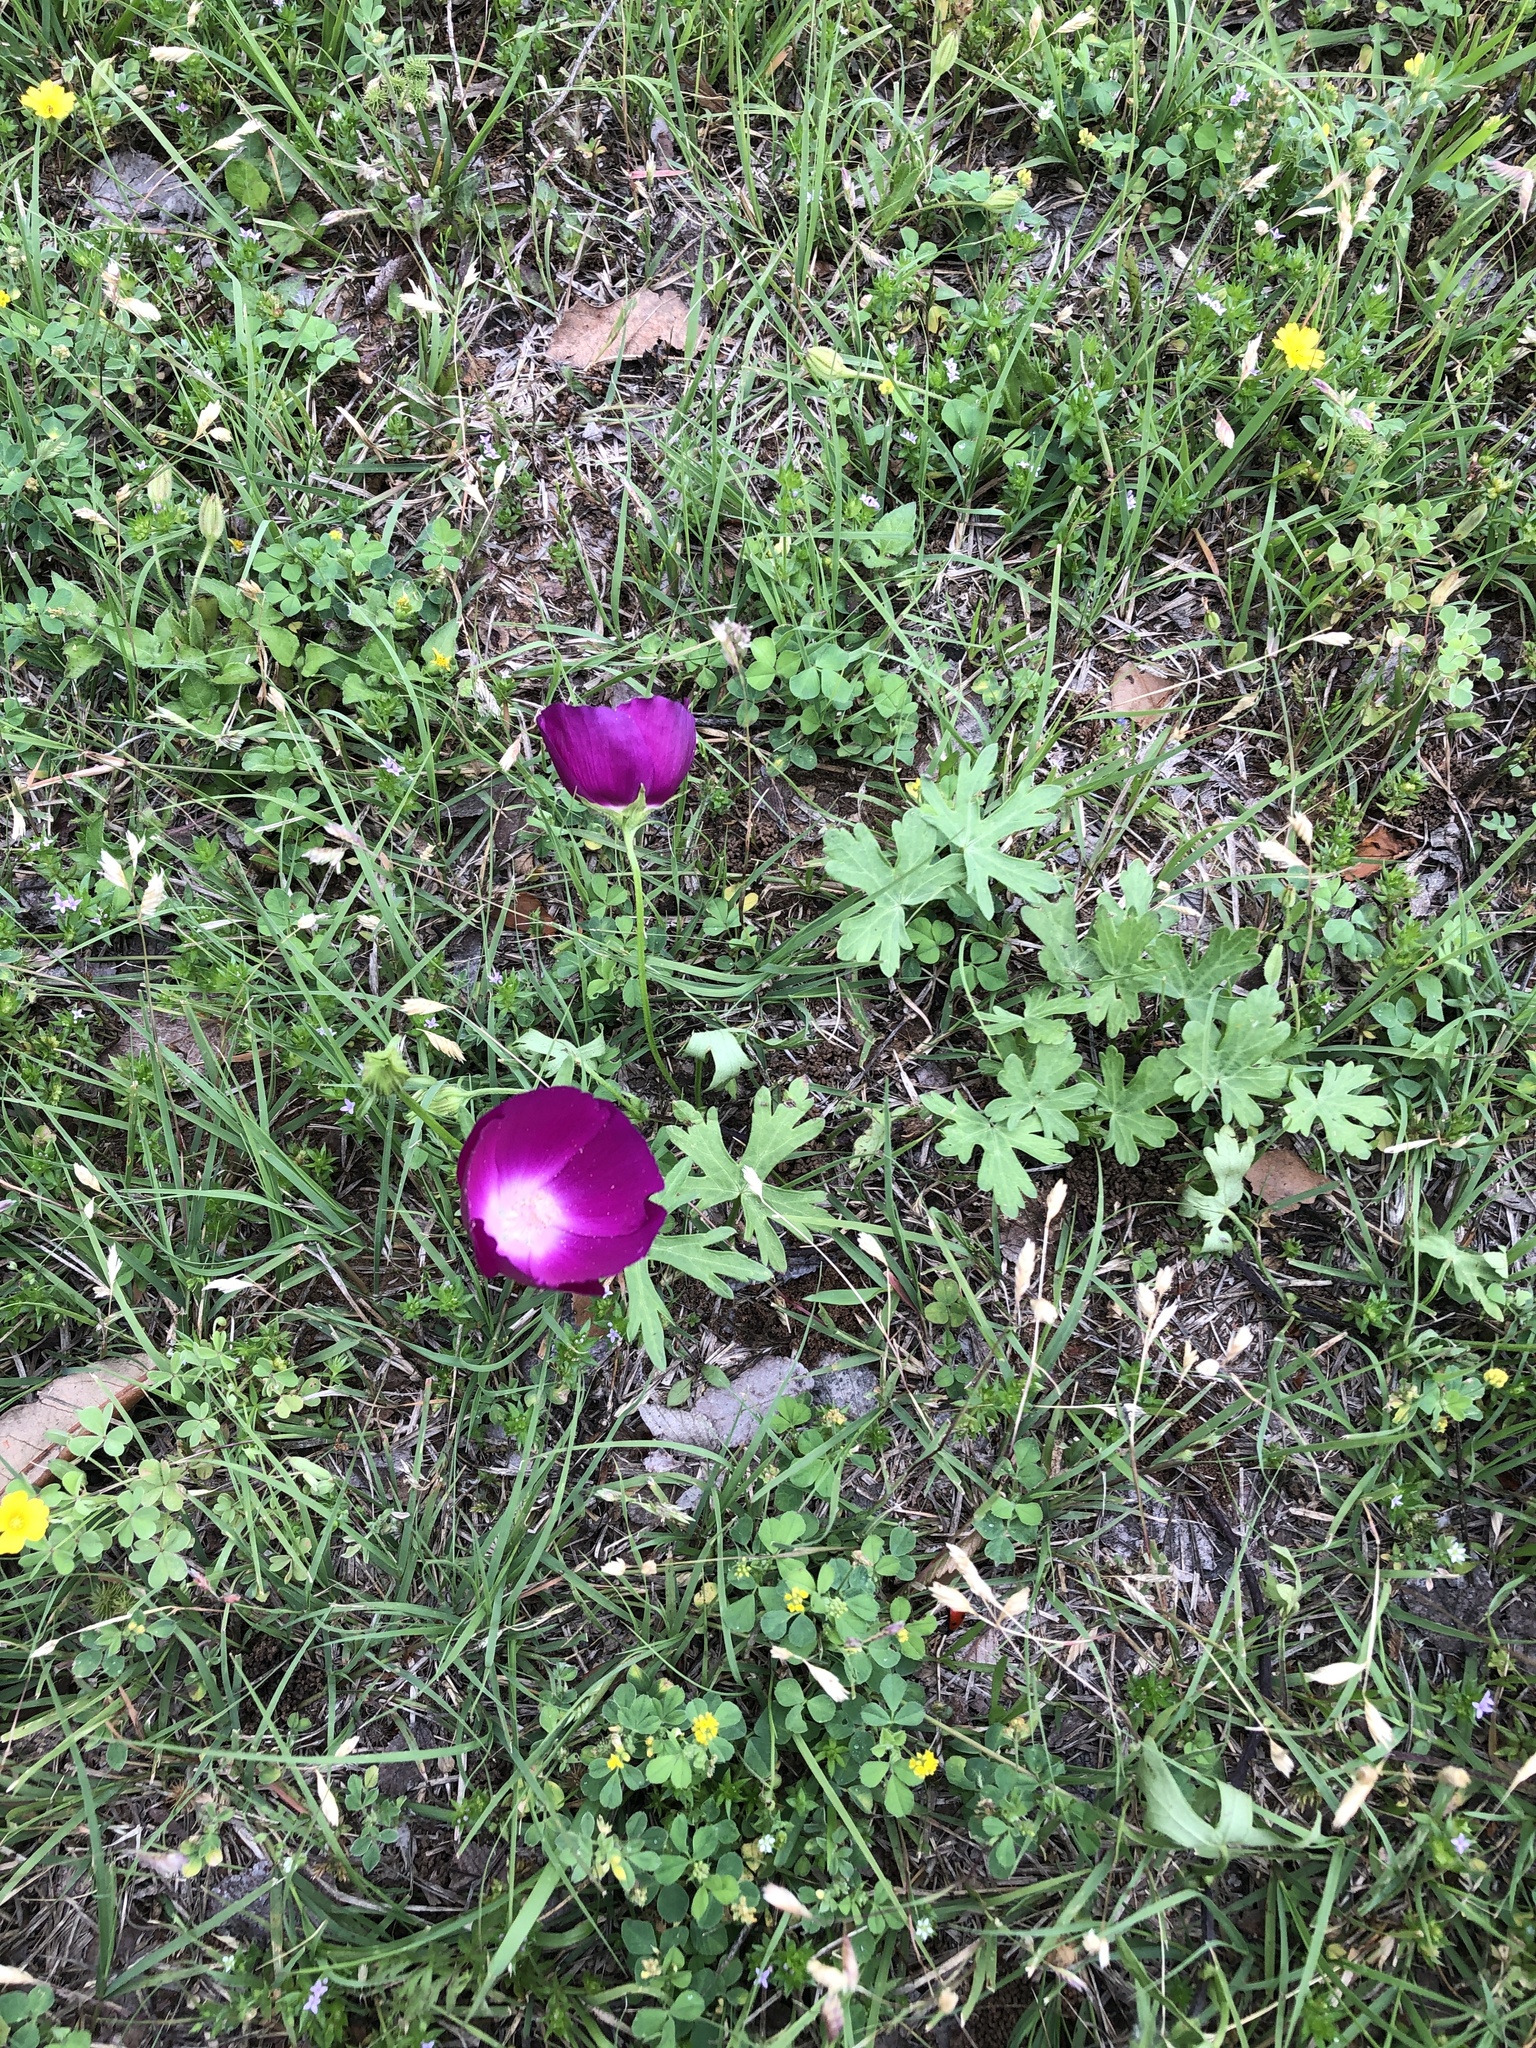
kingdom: Plantae
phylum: Tracheophyta
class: Magnoliopsida
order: Malvales
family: Malvaceae
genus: Callirhoe
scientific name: Callirhoe involucrata
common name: Purple poppy-mallow
